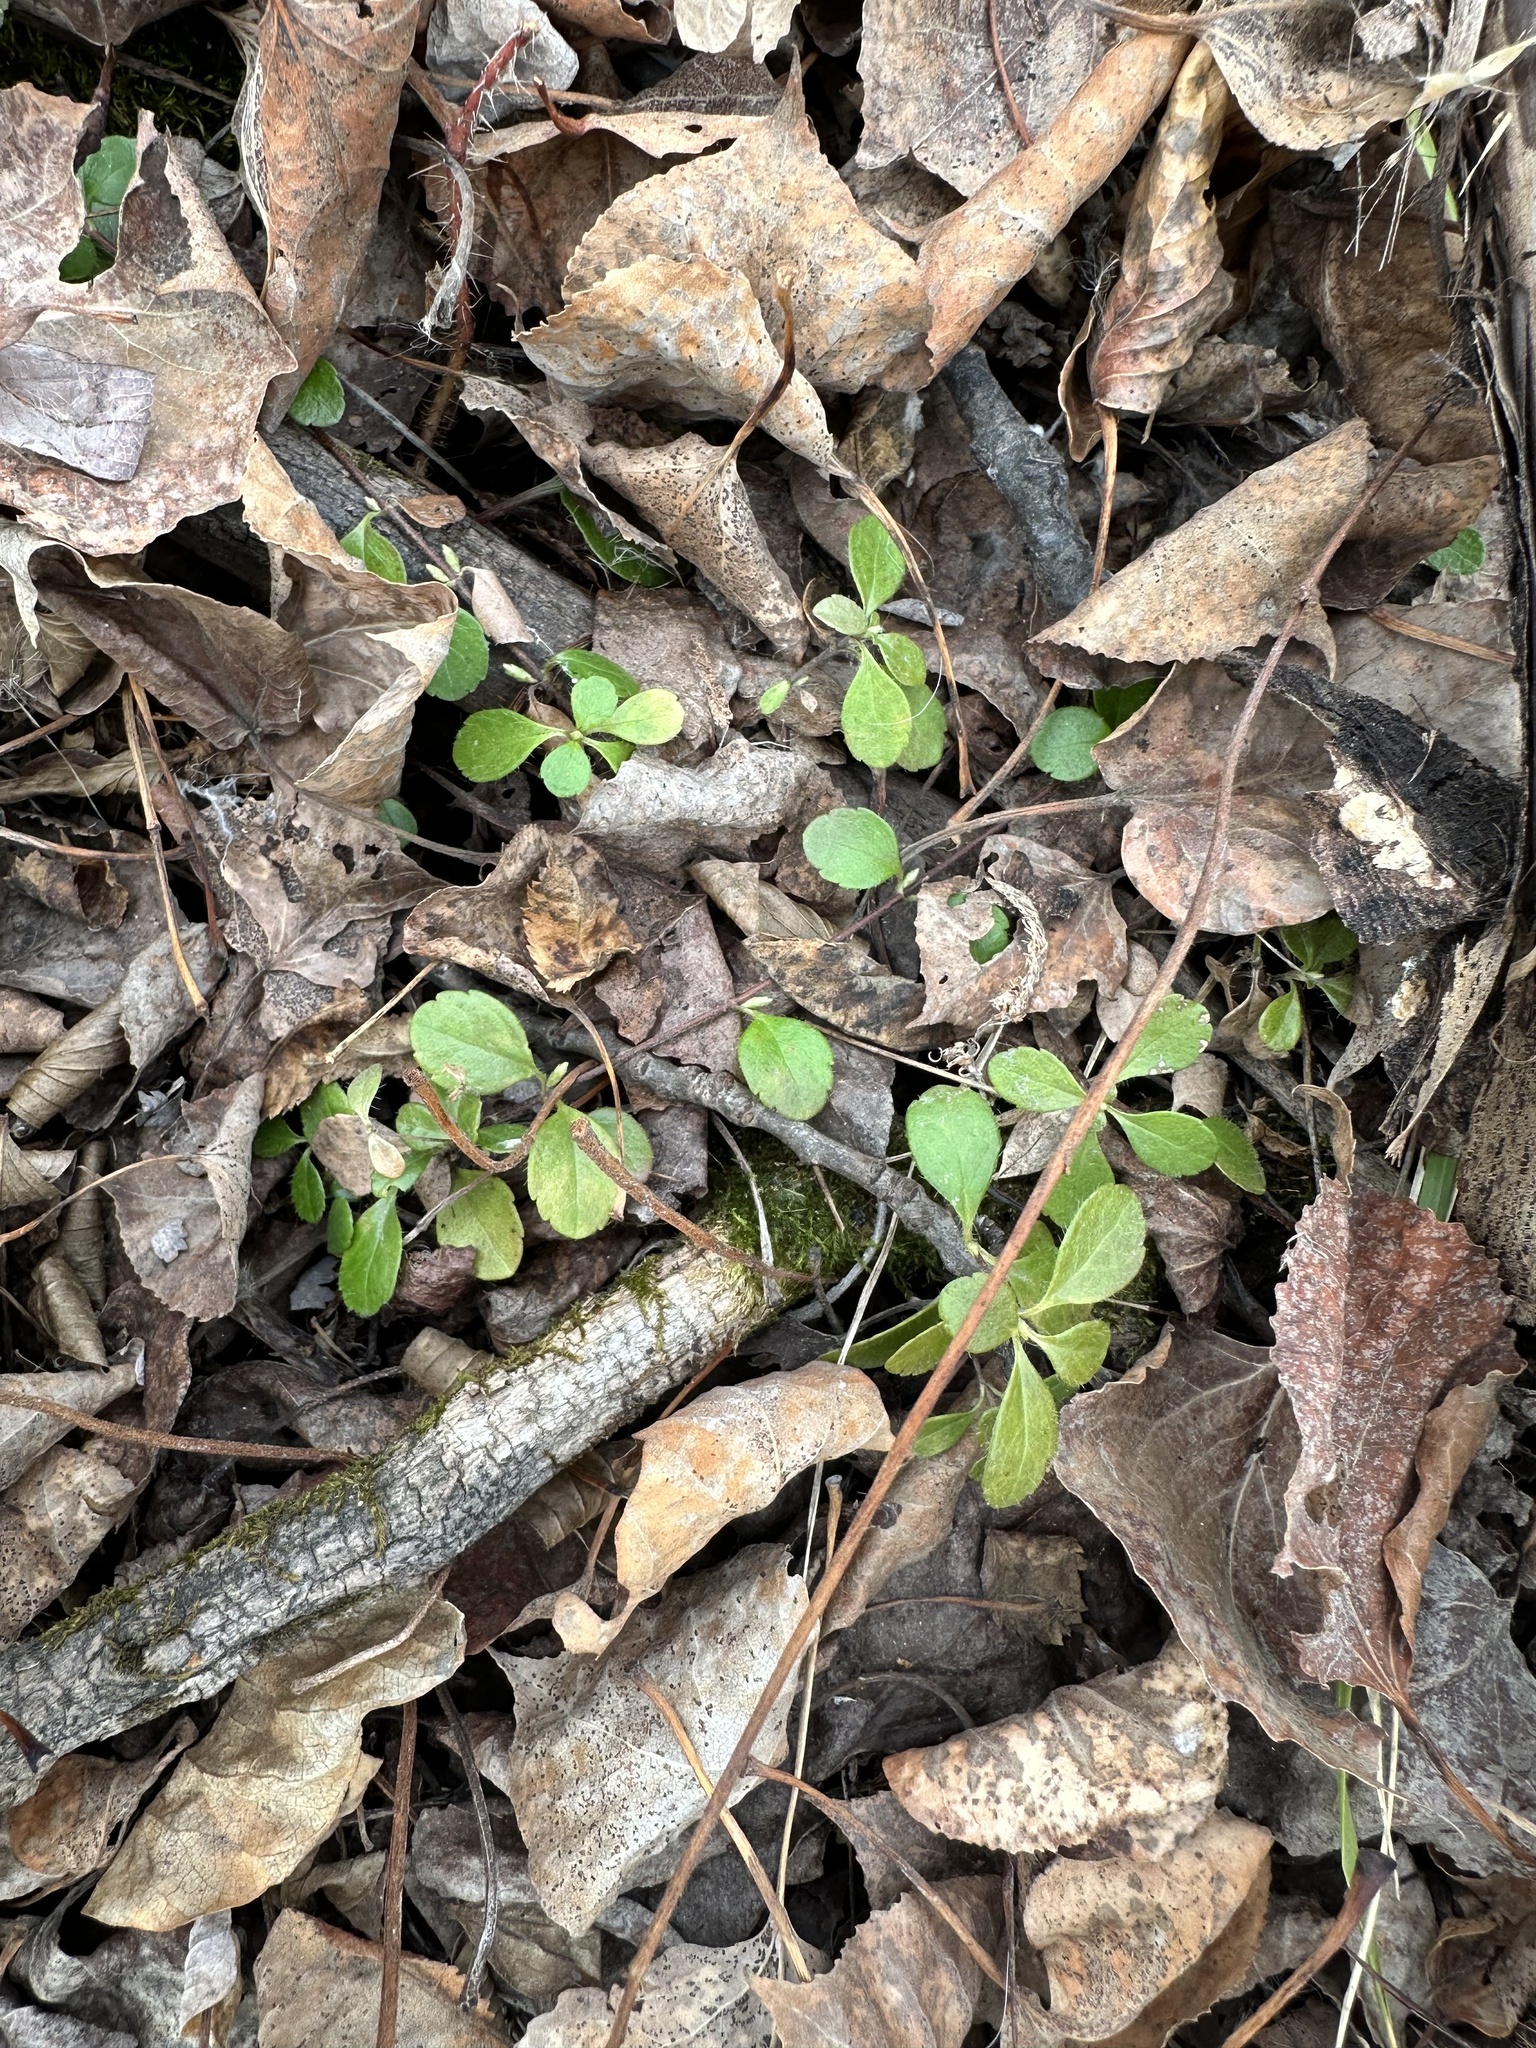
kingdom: Plantae
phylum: Tracheophyta
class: Magnoliopsida
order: Dipsacales
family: Caprifoliaceae
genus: Linnaea
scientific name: Linnaea borealis
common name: Twinflower
